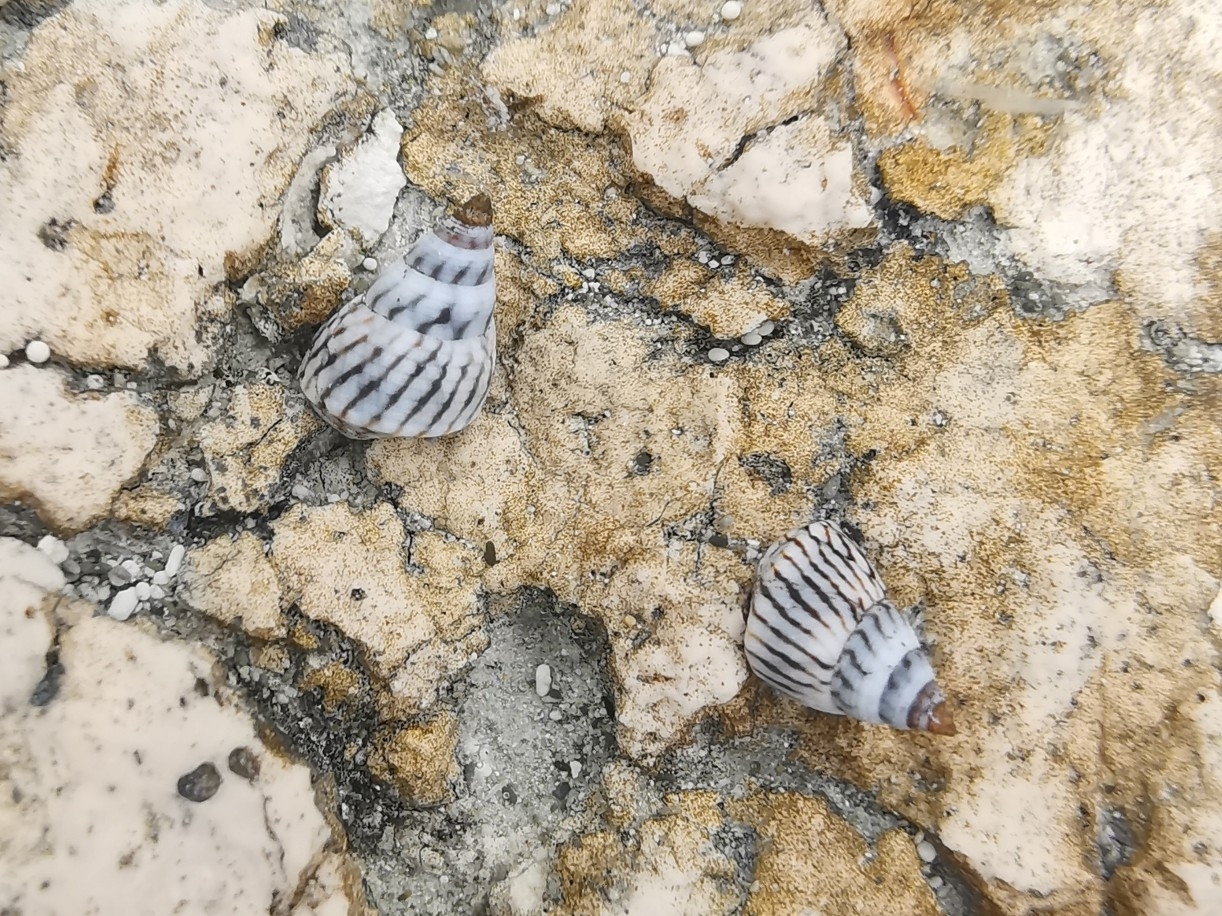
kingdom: Animalia
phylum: Mollusca
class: Gastropoda
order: Littorinimorpha
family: Littorinidae
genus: Echinolittorina
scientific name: Echinolittorina ziczac
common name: Zebra periwinkle
